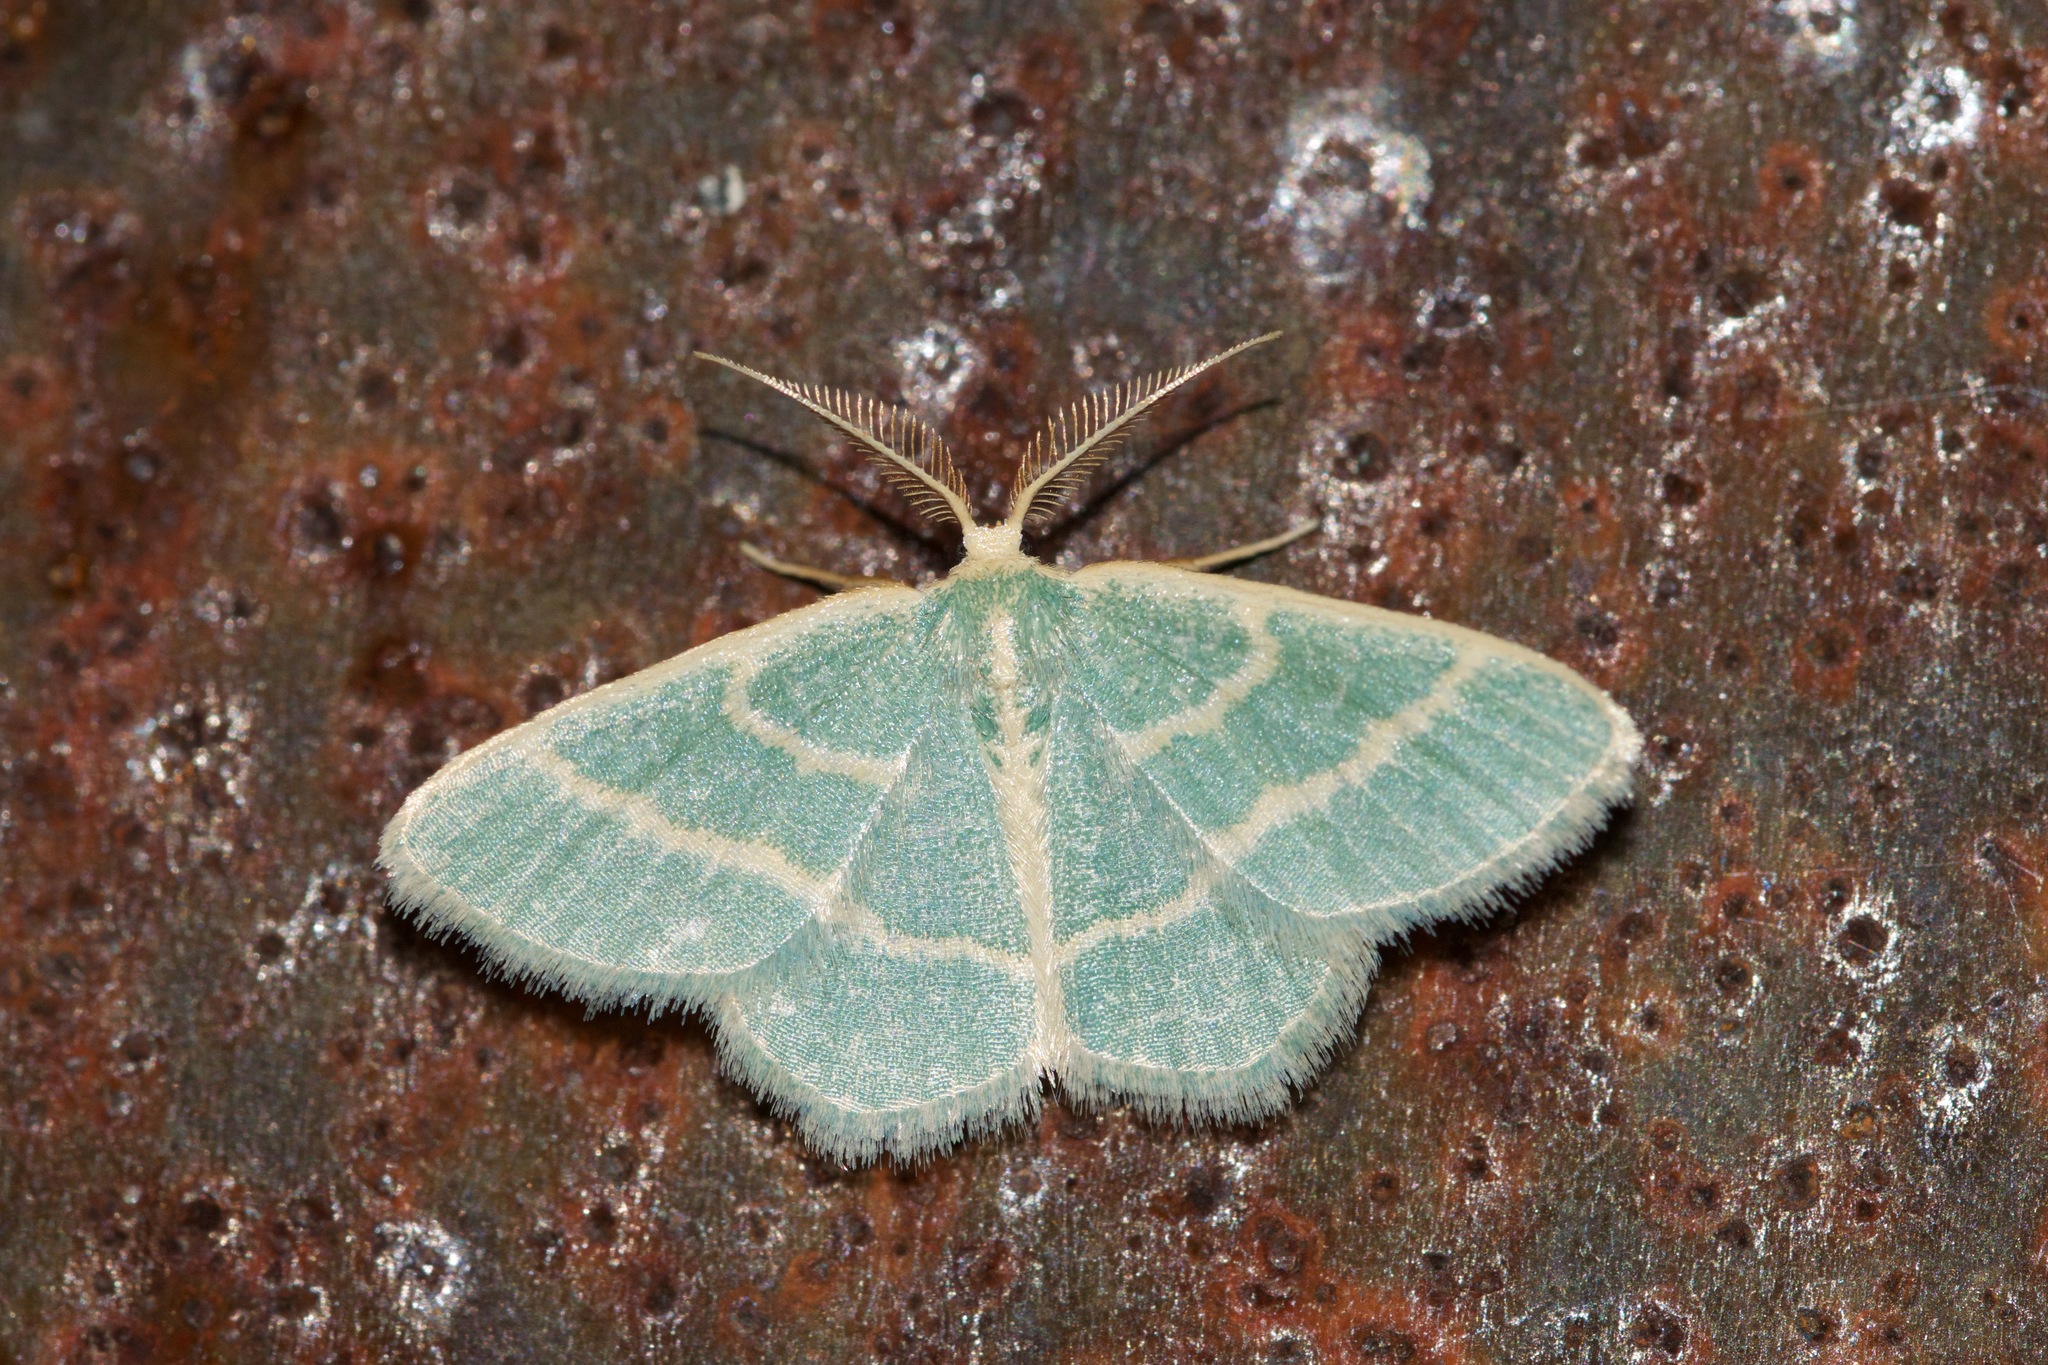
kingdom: Animalia
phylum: Arthropoda
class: Insecta
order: Lepidoptera
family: Geometridae
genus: Chlorochlamys
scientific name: Chlorochlamys chloroleucaria
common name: Blackberry looper
